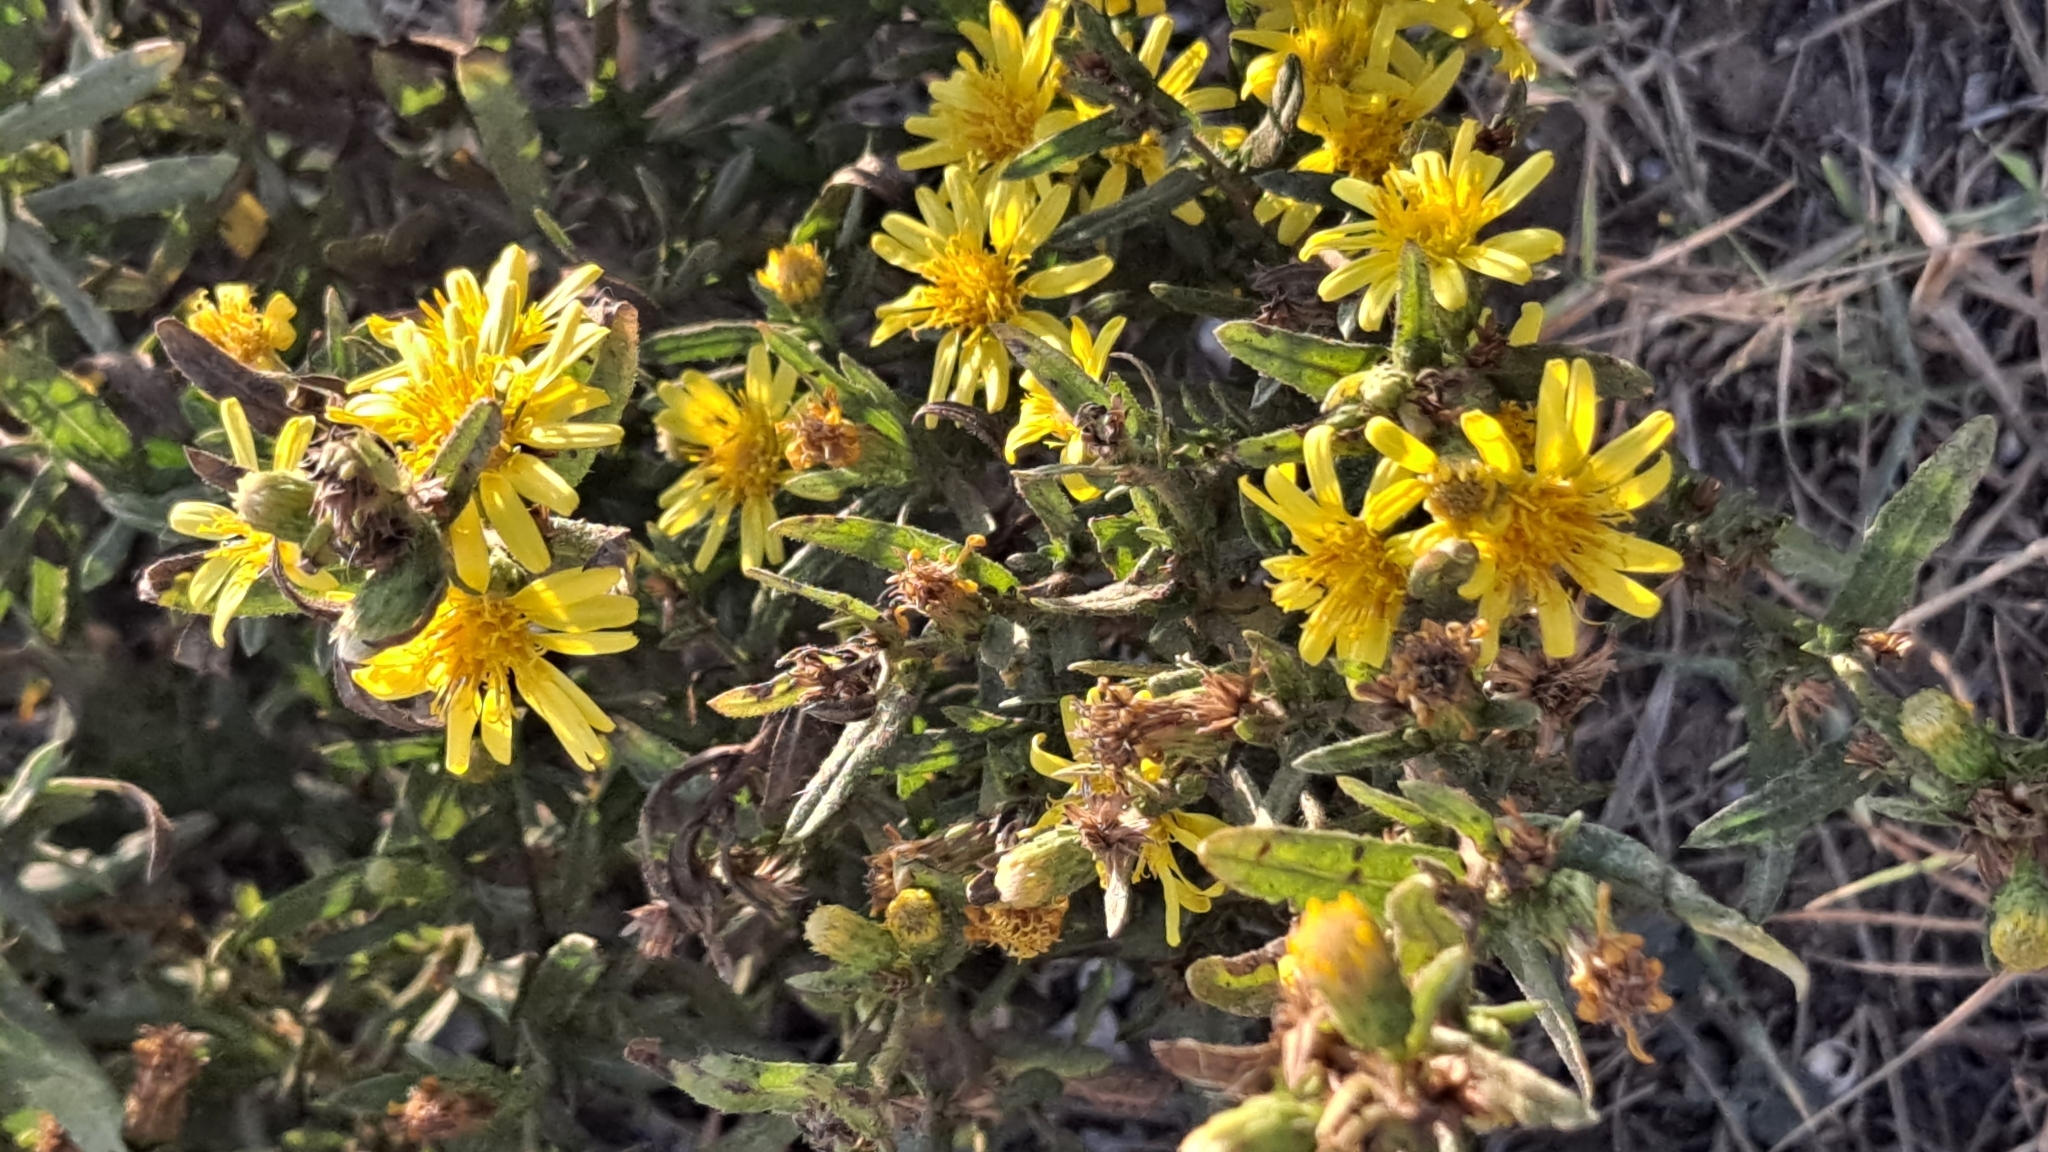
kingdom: Plantae
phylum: Tracheophyta
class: Magnoliopsida
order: Asterales
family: Asteraceae
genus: Dittrichia
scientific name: Dittrichia viscosa
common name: Woody fleabane
